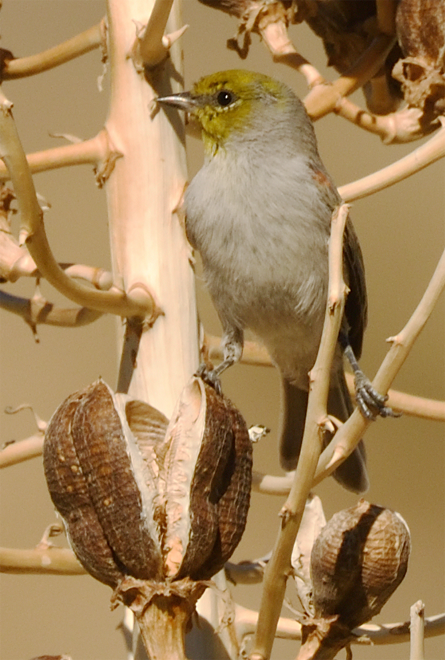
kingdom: Animalia
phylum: Chordata
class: Aves
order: Passeriformes
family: Remizidae
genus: Auriparus
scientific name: Auriparus flaviceps
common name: Verdin
